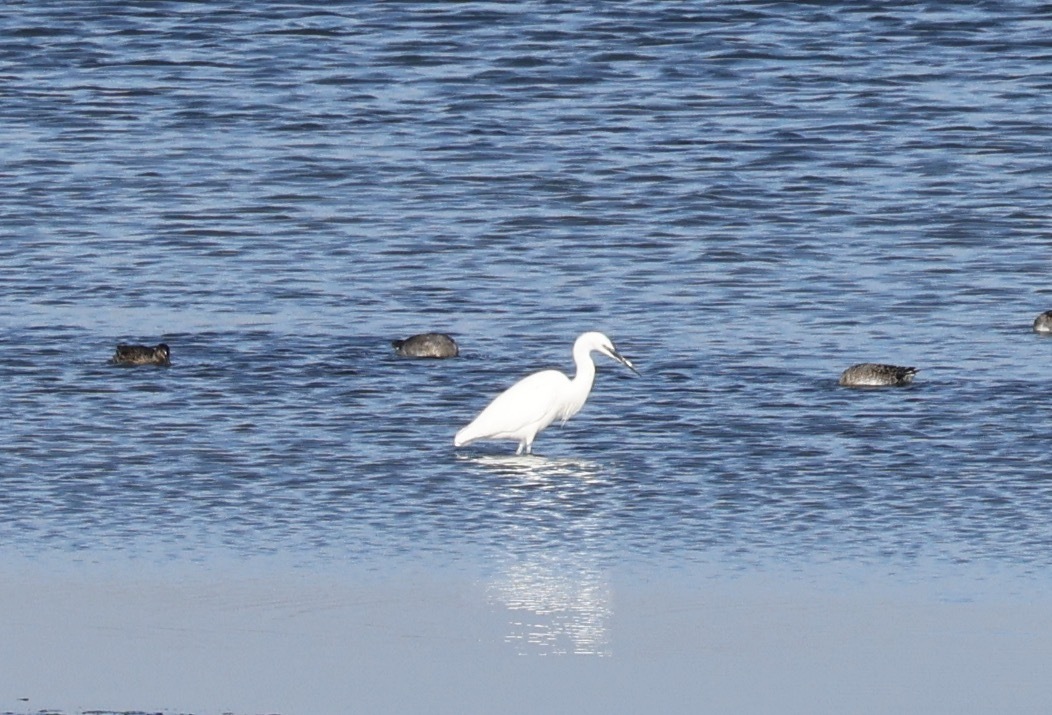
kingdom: Animalia
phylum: Chordata
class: Aves
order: Pelecaniformes
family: Ardeidae
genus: Egretta
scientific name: Egretta garzetta
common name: Little egret
